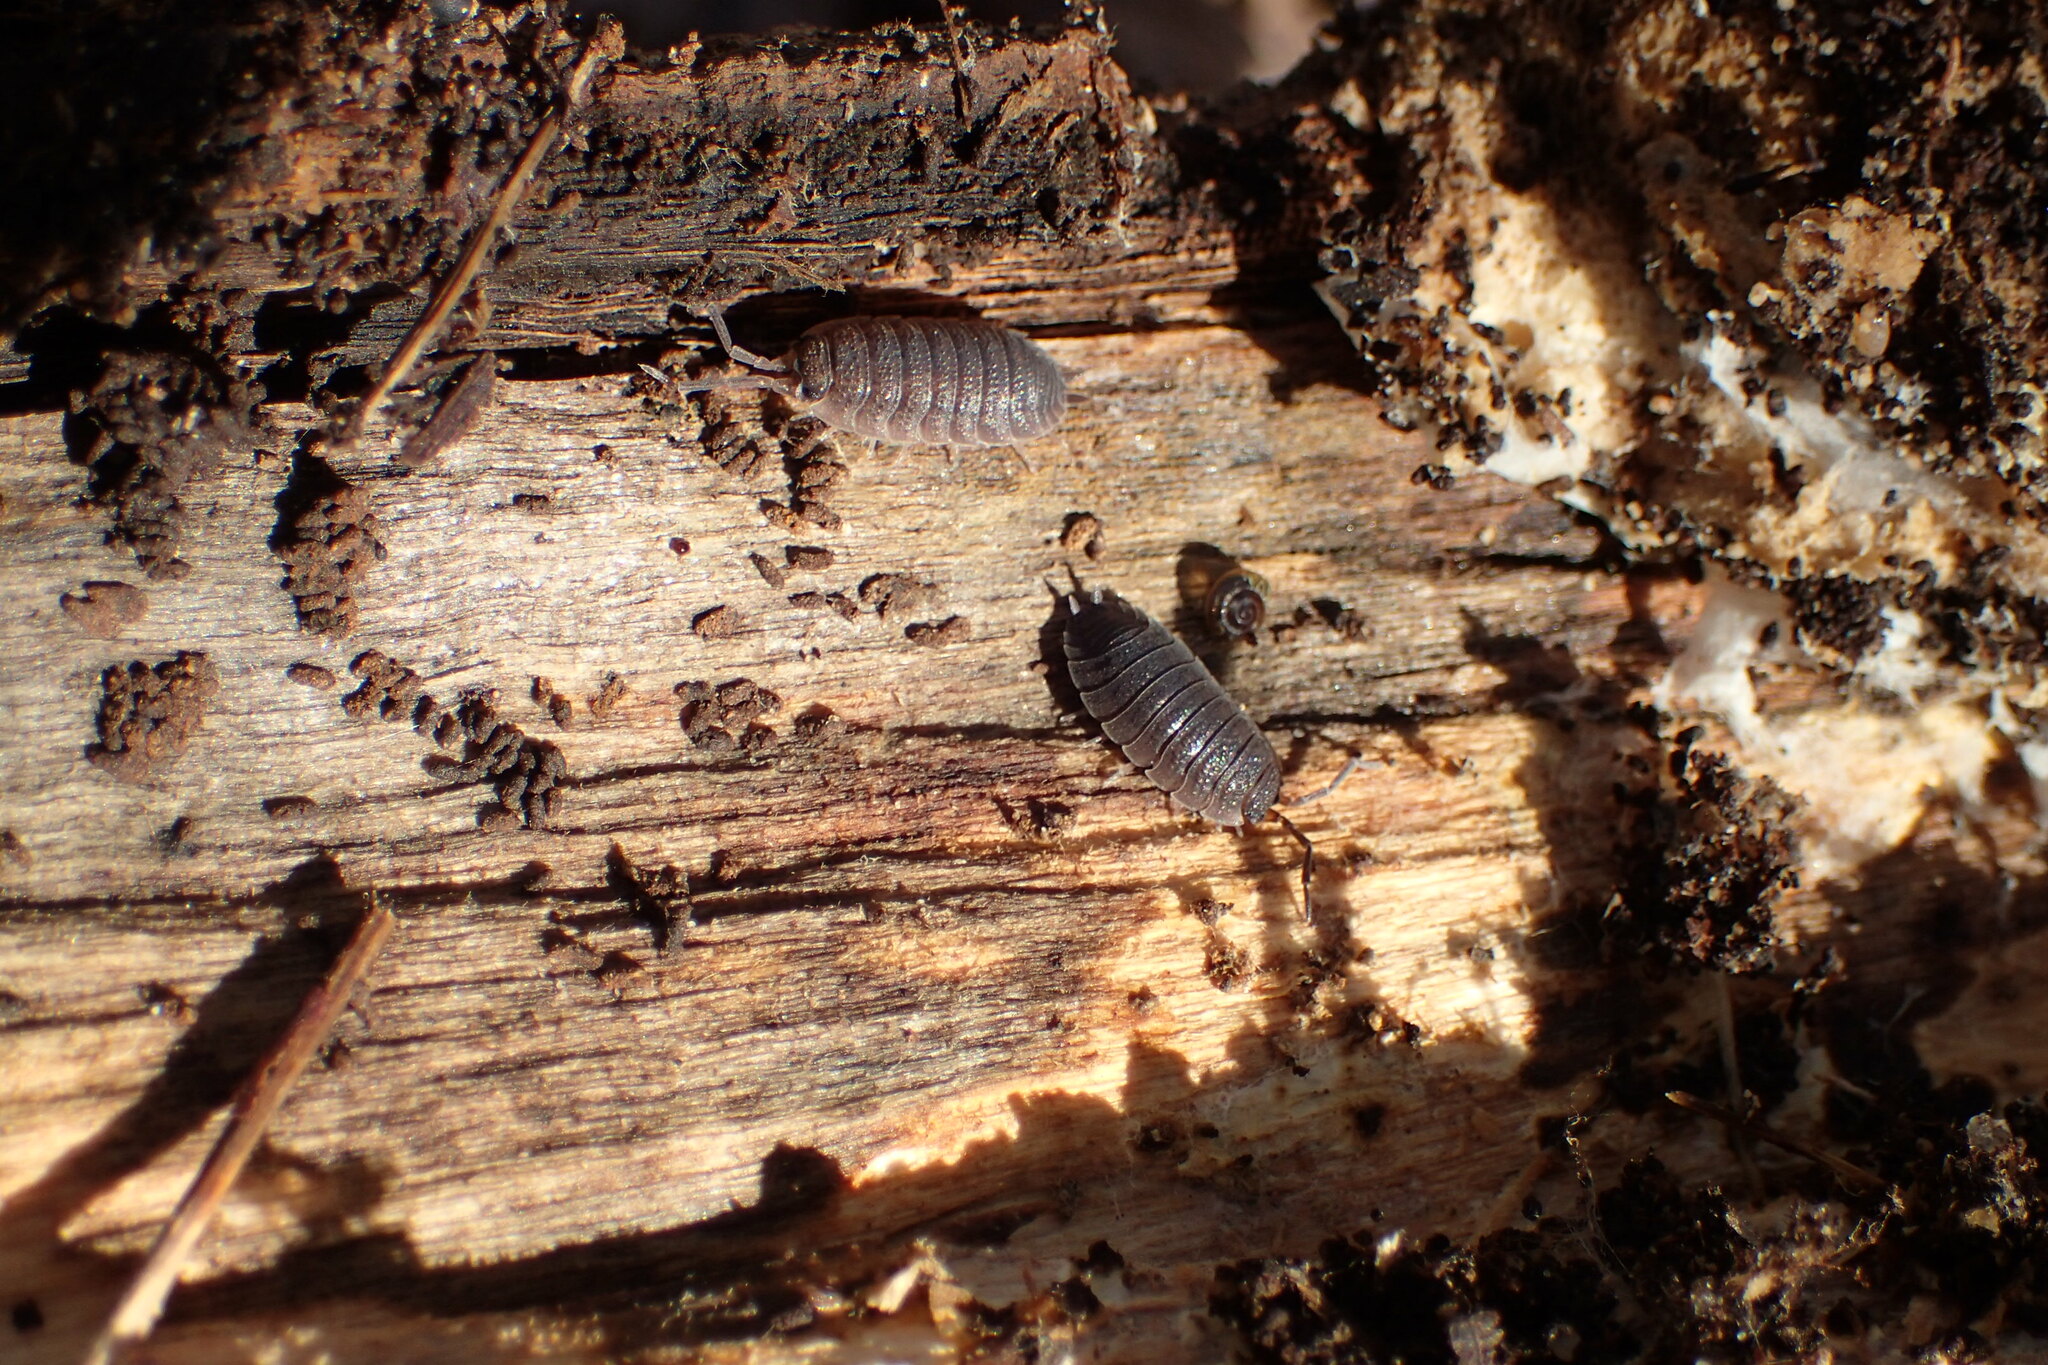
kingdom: Animalia
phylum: Arthropoda
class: Malacostraca
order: Isopoda
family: Porcellionidae
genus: Porcellio
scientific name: Porcellio scaber
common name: Common rough woodlouse
